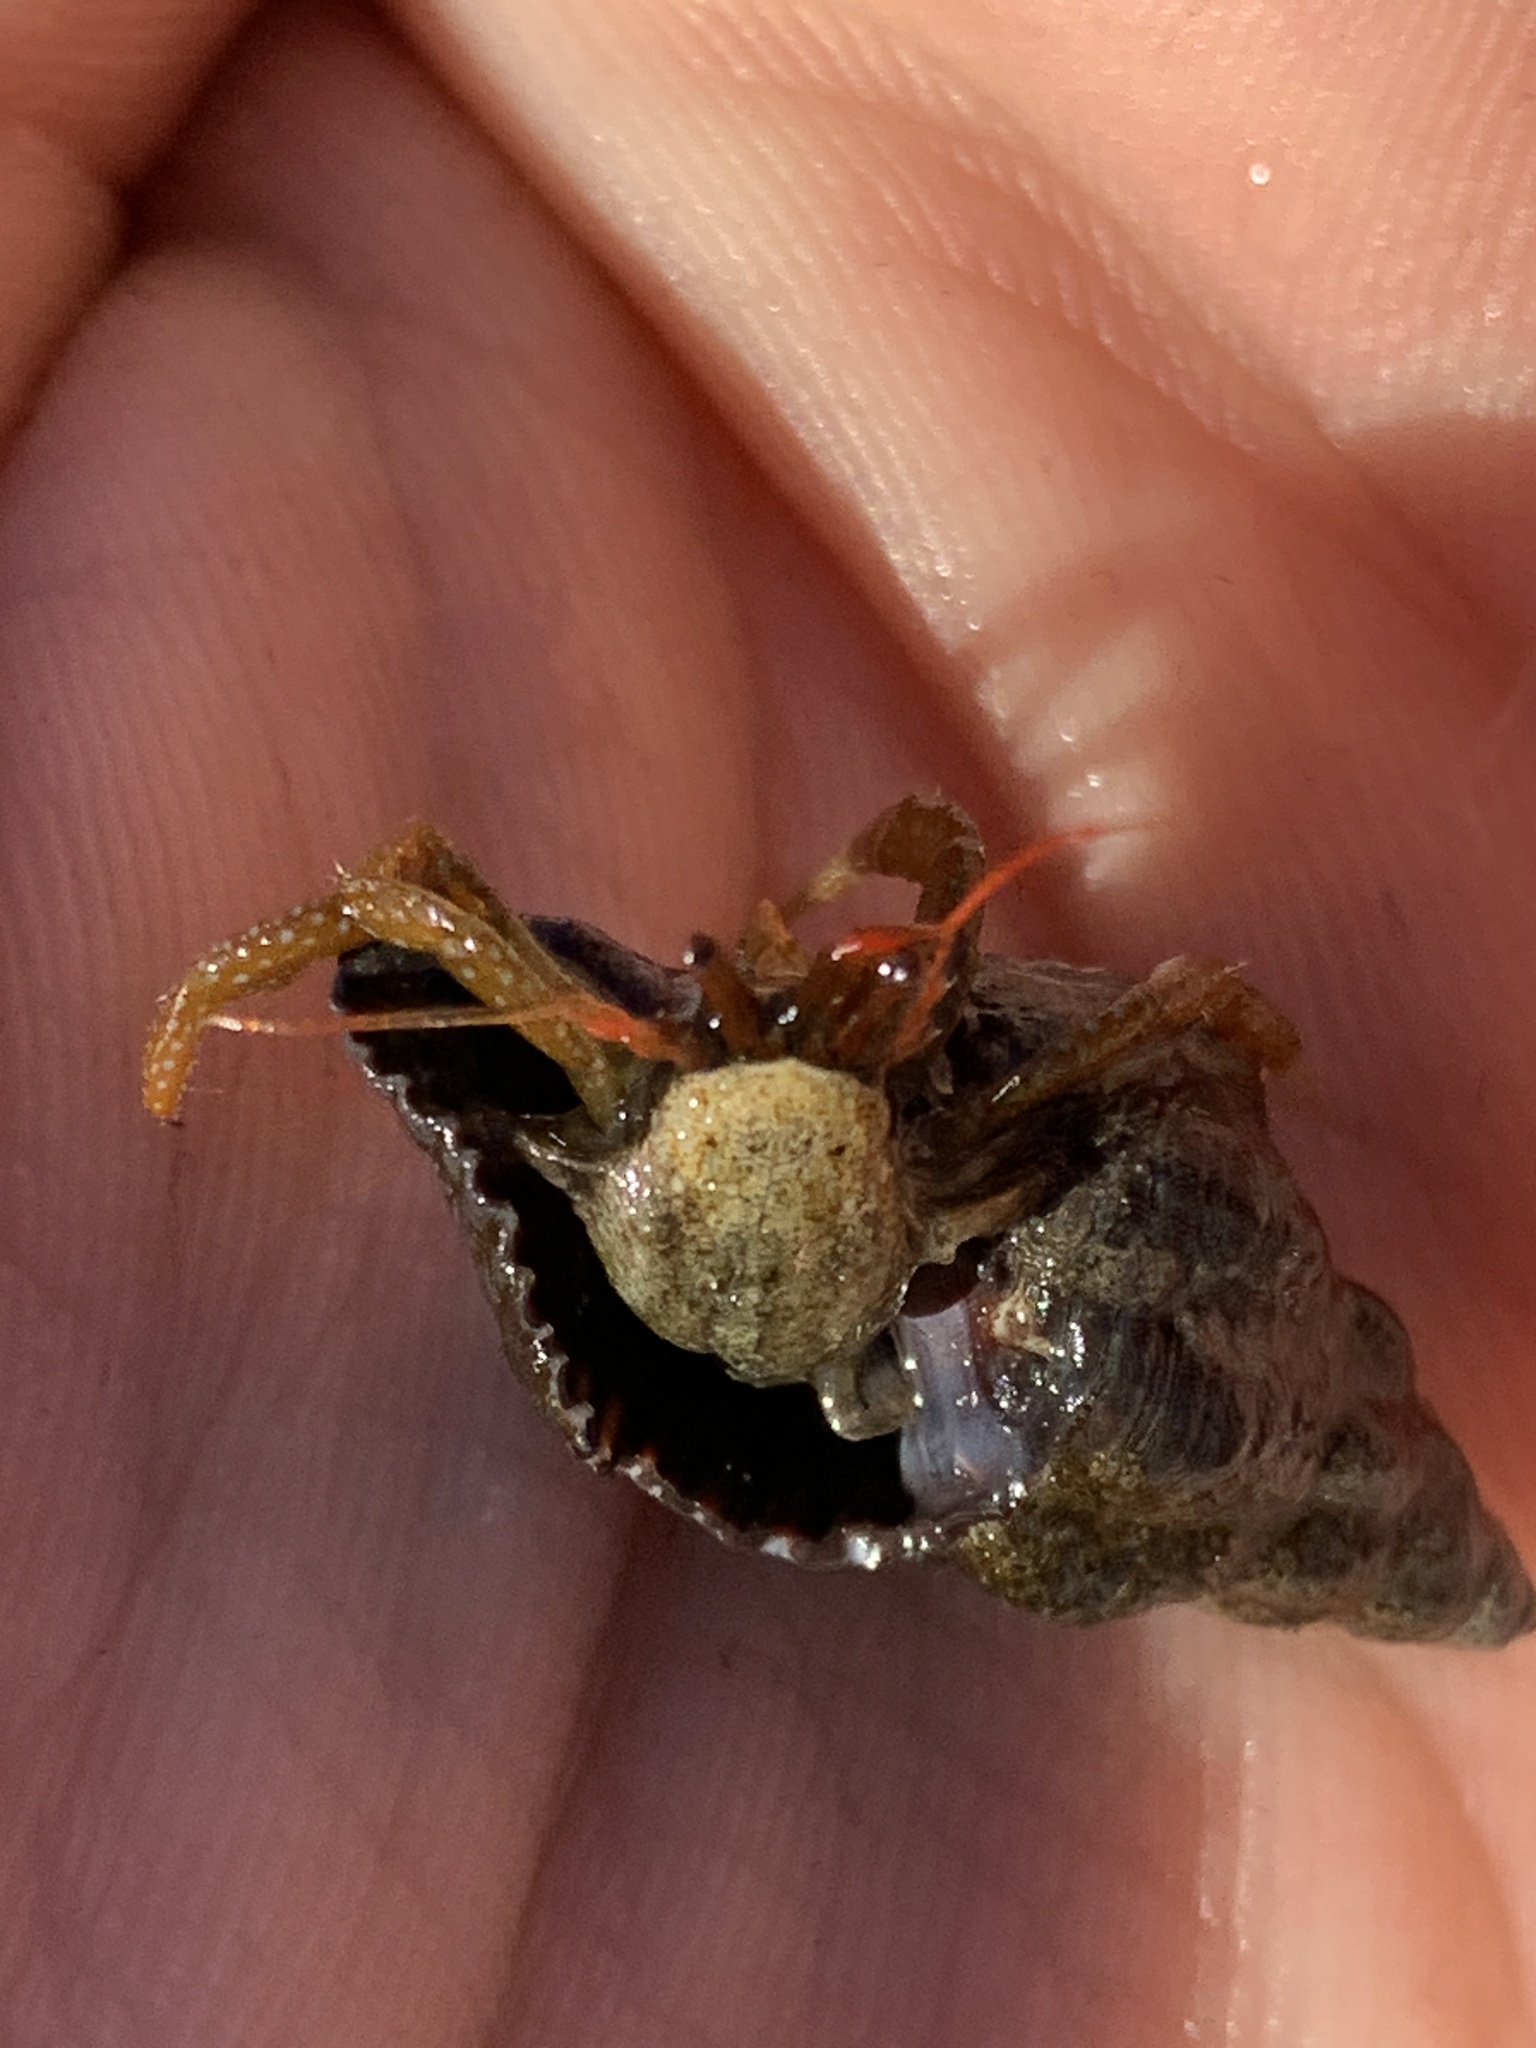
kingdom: Animalia
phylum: Arthropoda
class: Malacostraca
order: Decapoda
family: Paguridae
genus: Pagurus
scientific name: Pagurus granosimanus
